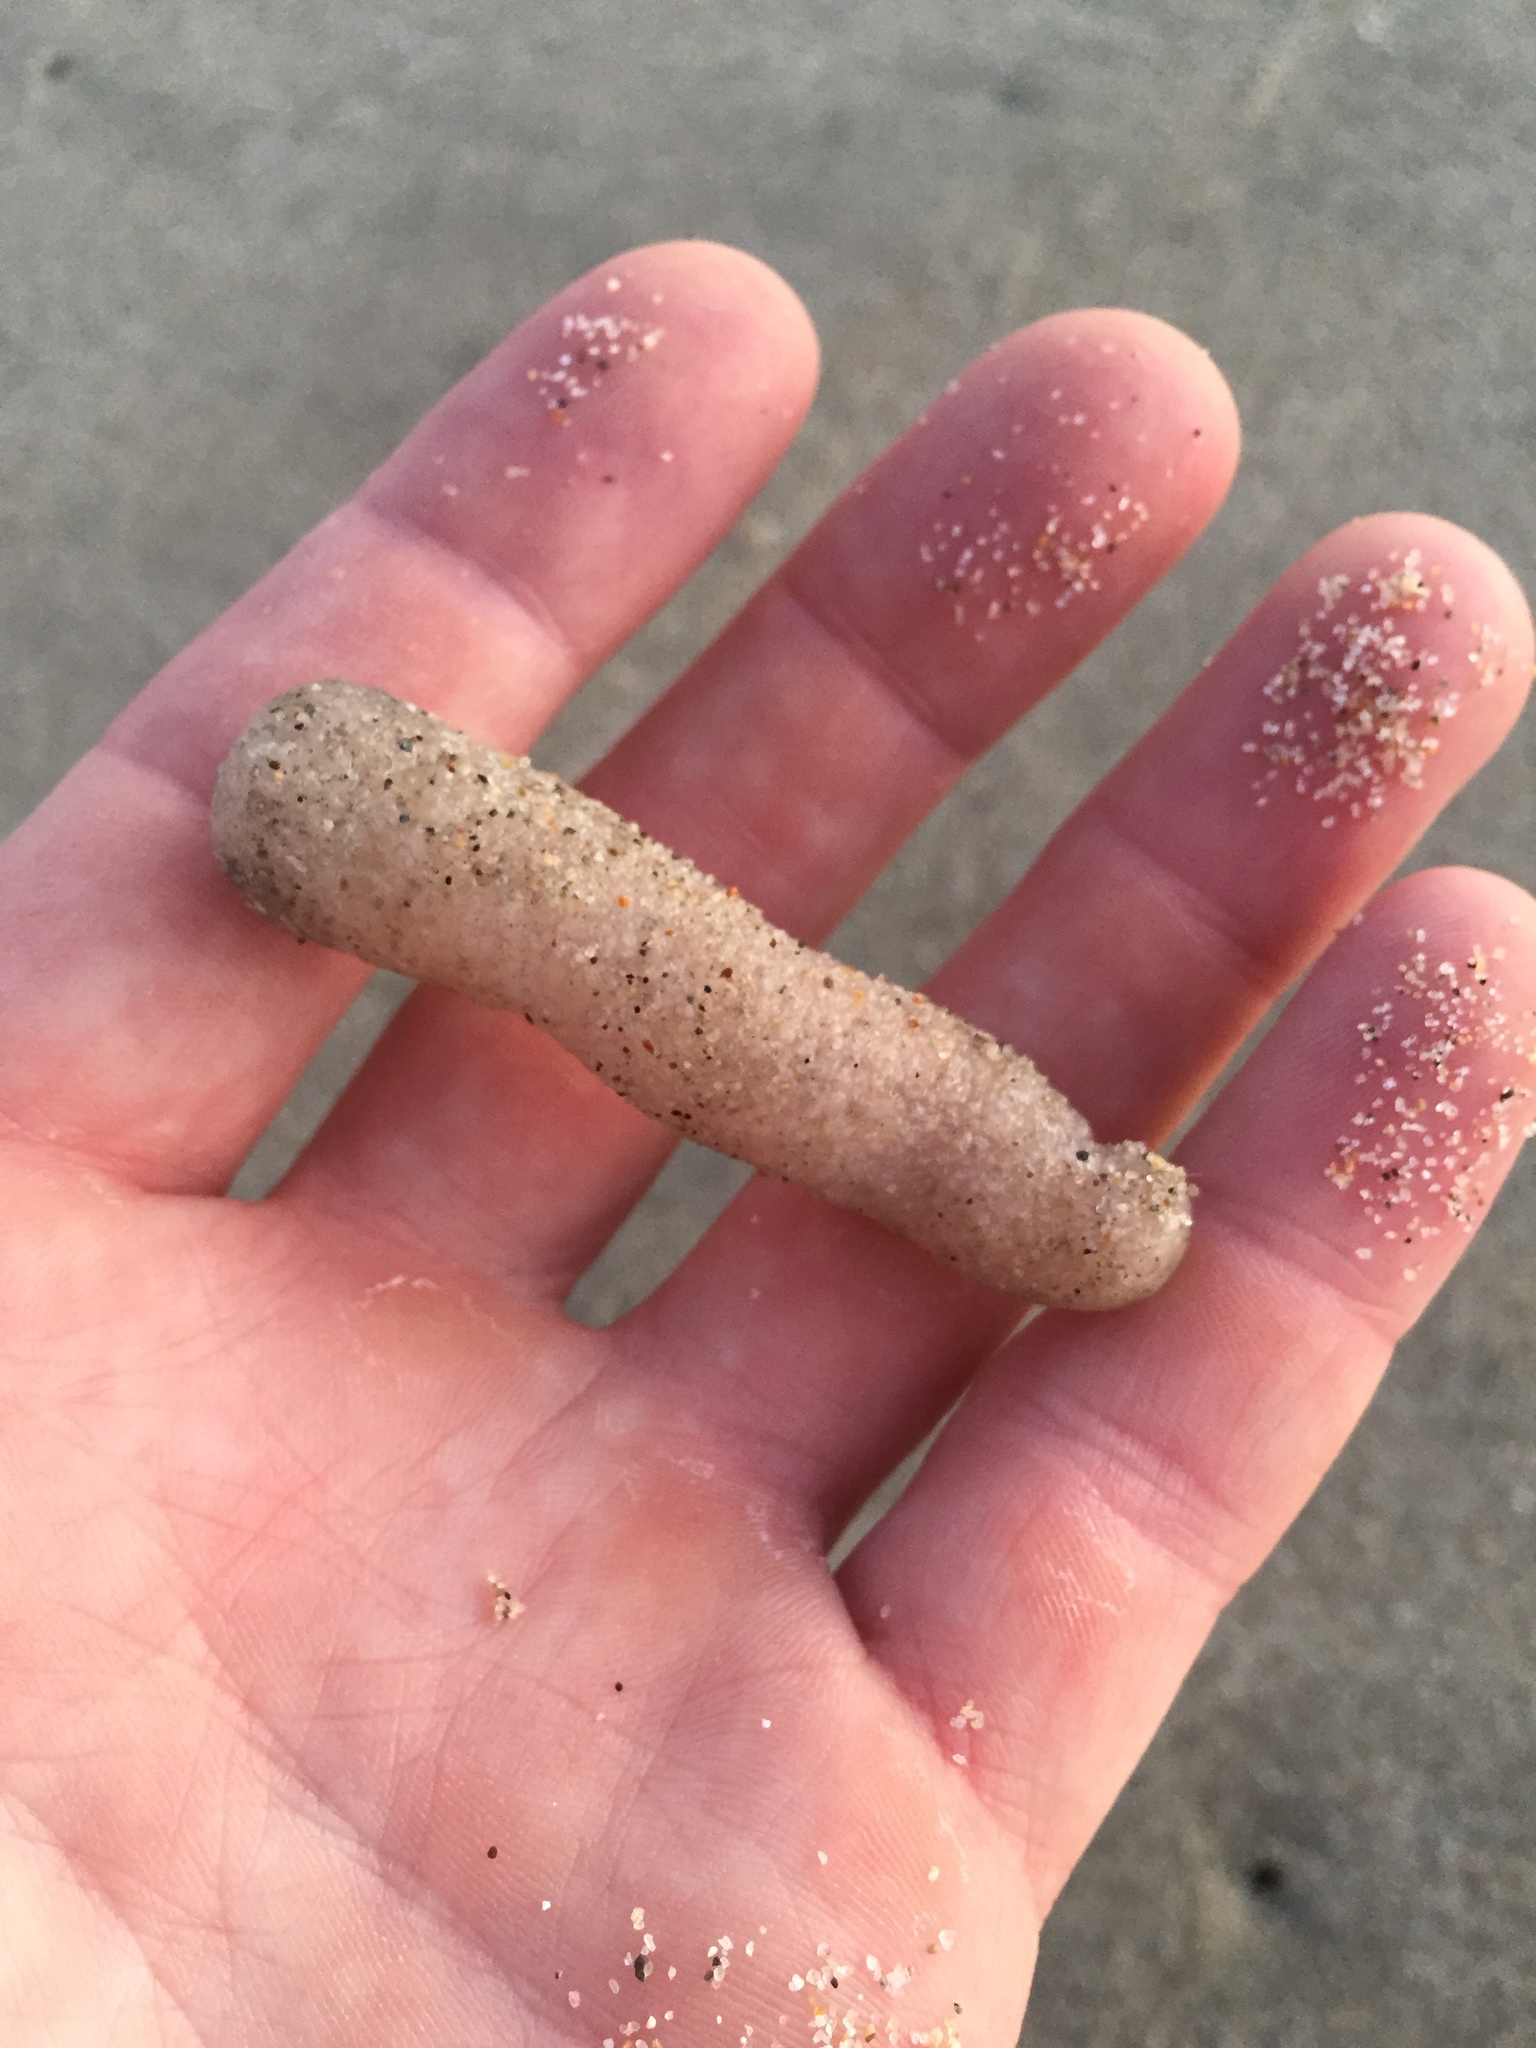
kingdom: Animalia
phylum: Chordata
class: Thaliacea
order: Pyrosomatida
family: Pyrosomatidae
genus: Pyrosoma
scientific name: Pyrosoma atlanticum
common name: Atlantic pyrosomes
